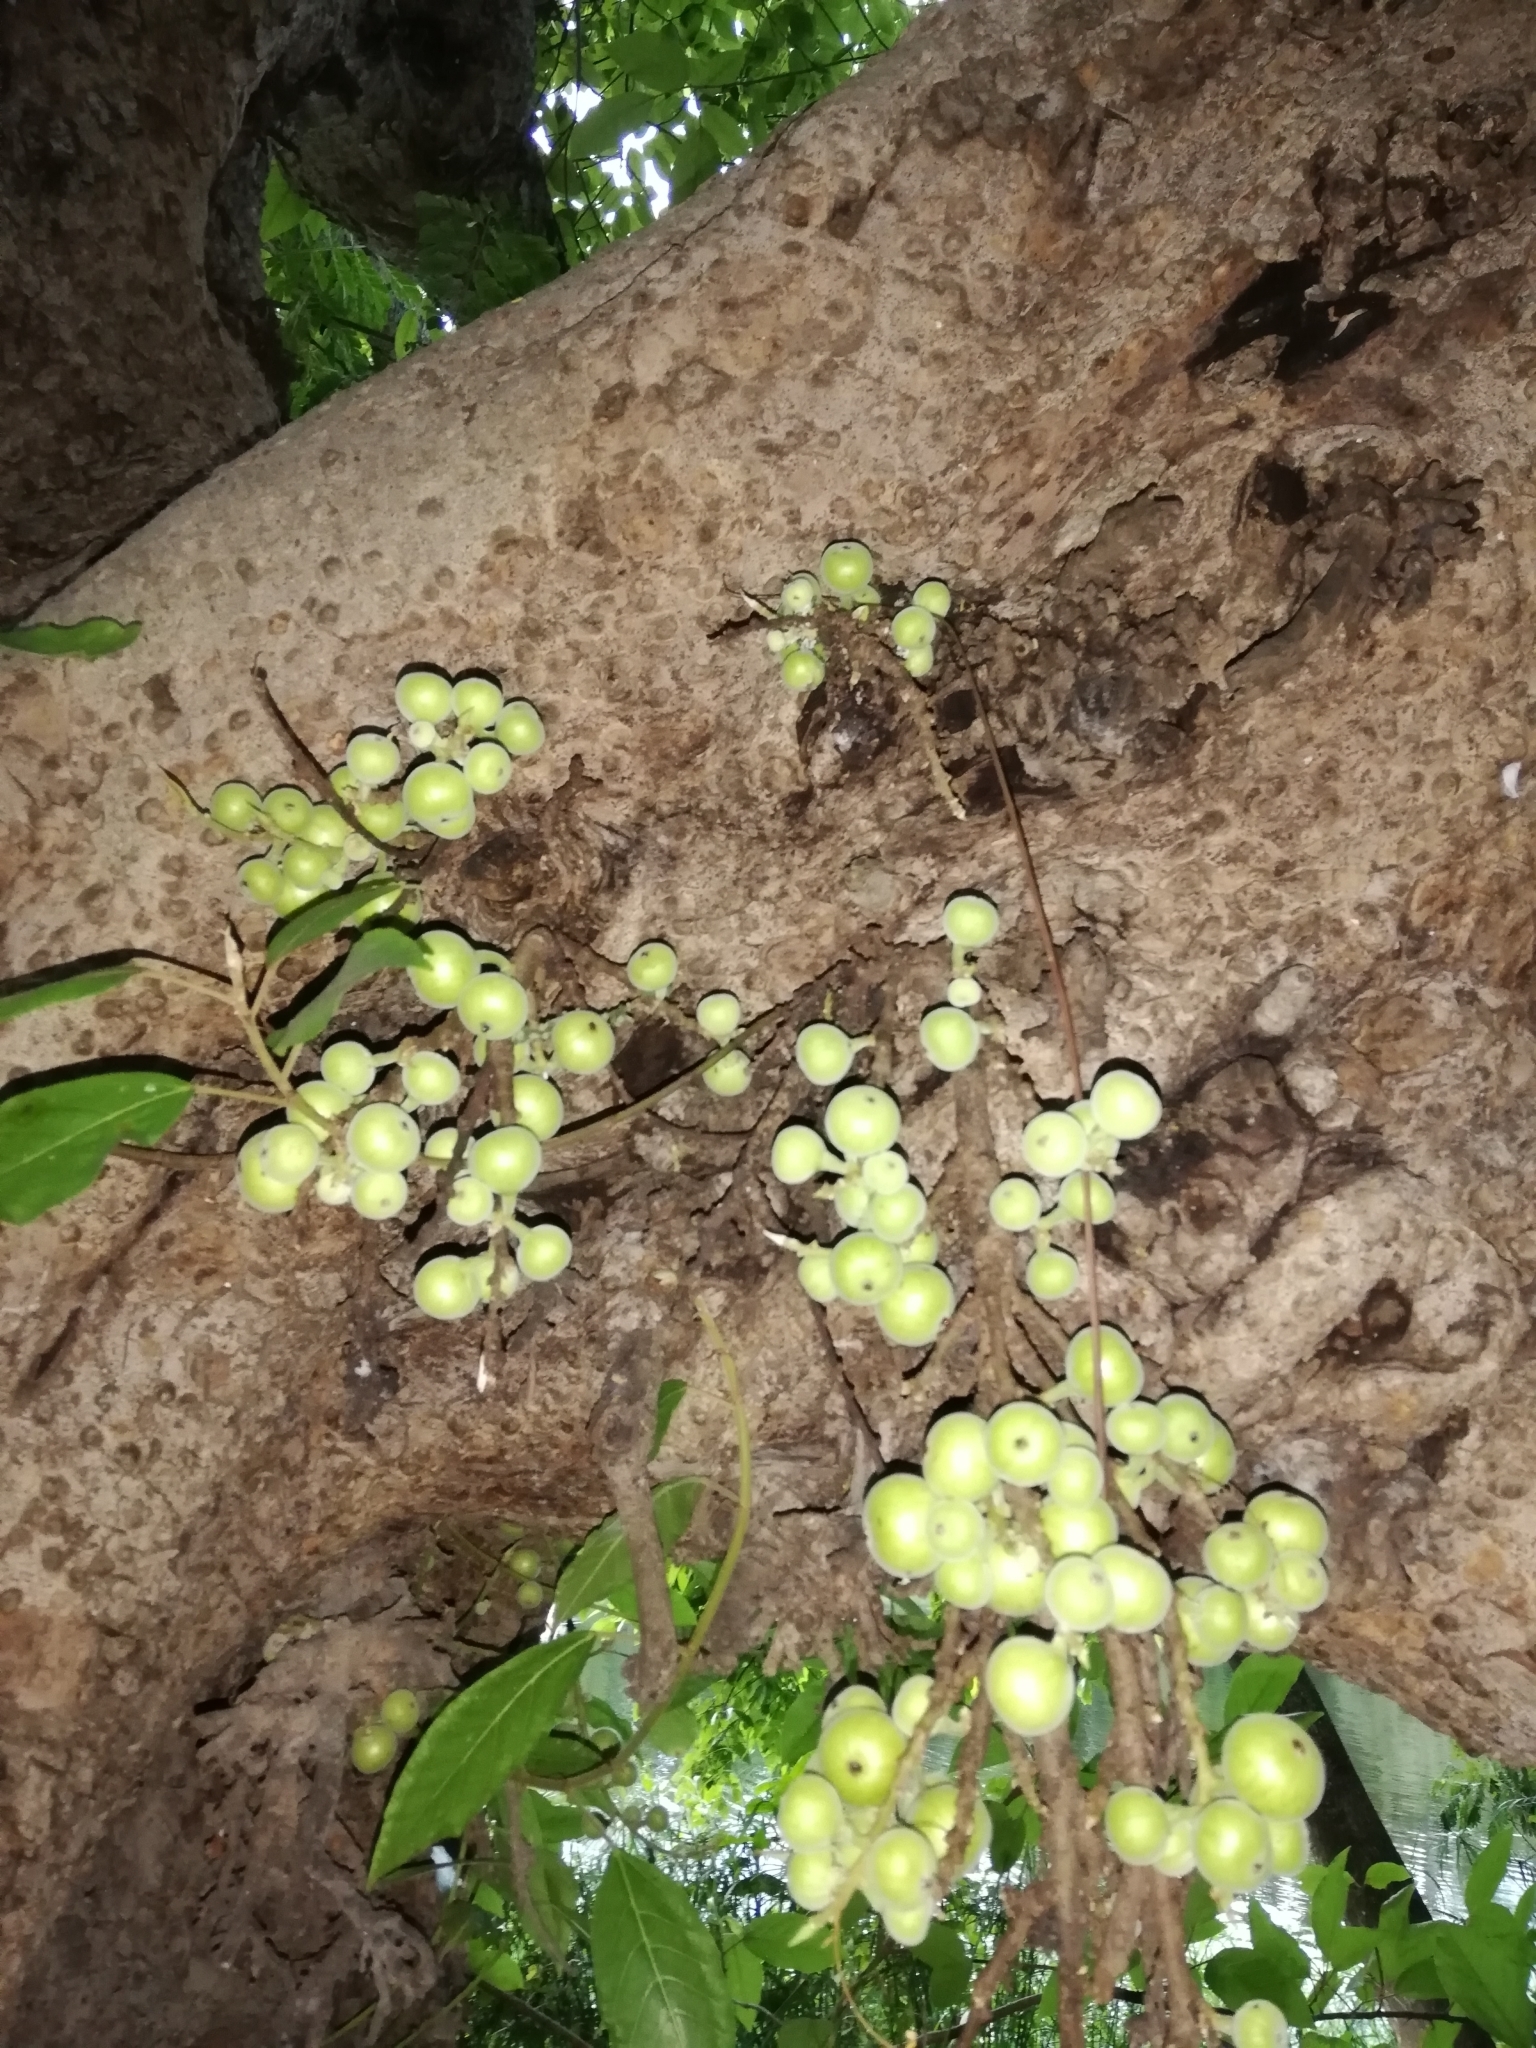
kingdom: Plantae
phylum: Tracheophyta
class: Magnoliopsida
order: Rosales
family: Moraceae
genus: Ficus
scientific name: Ficus racemosa
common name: Cluster fig
